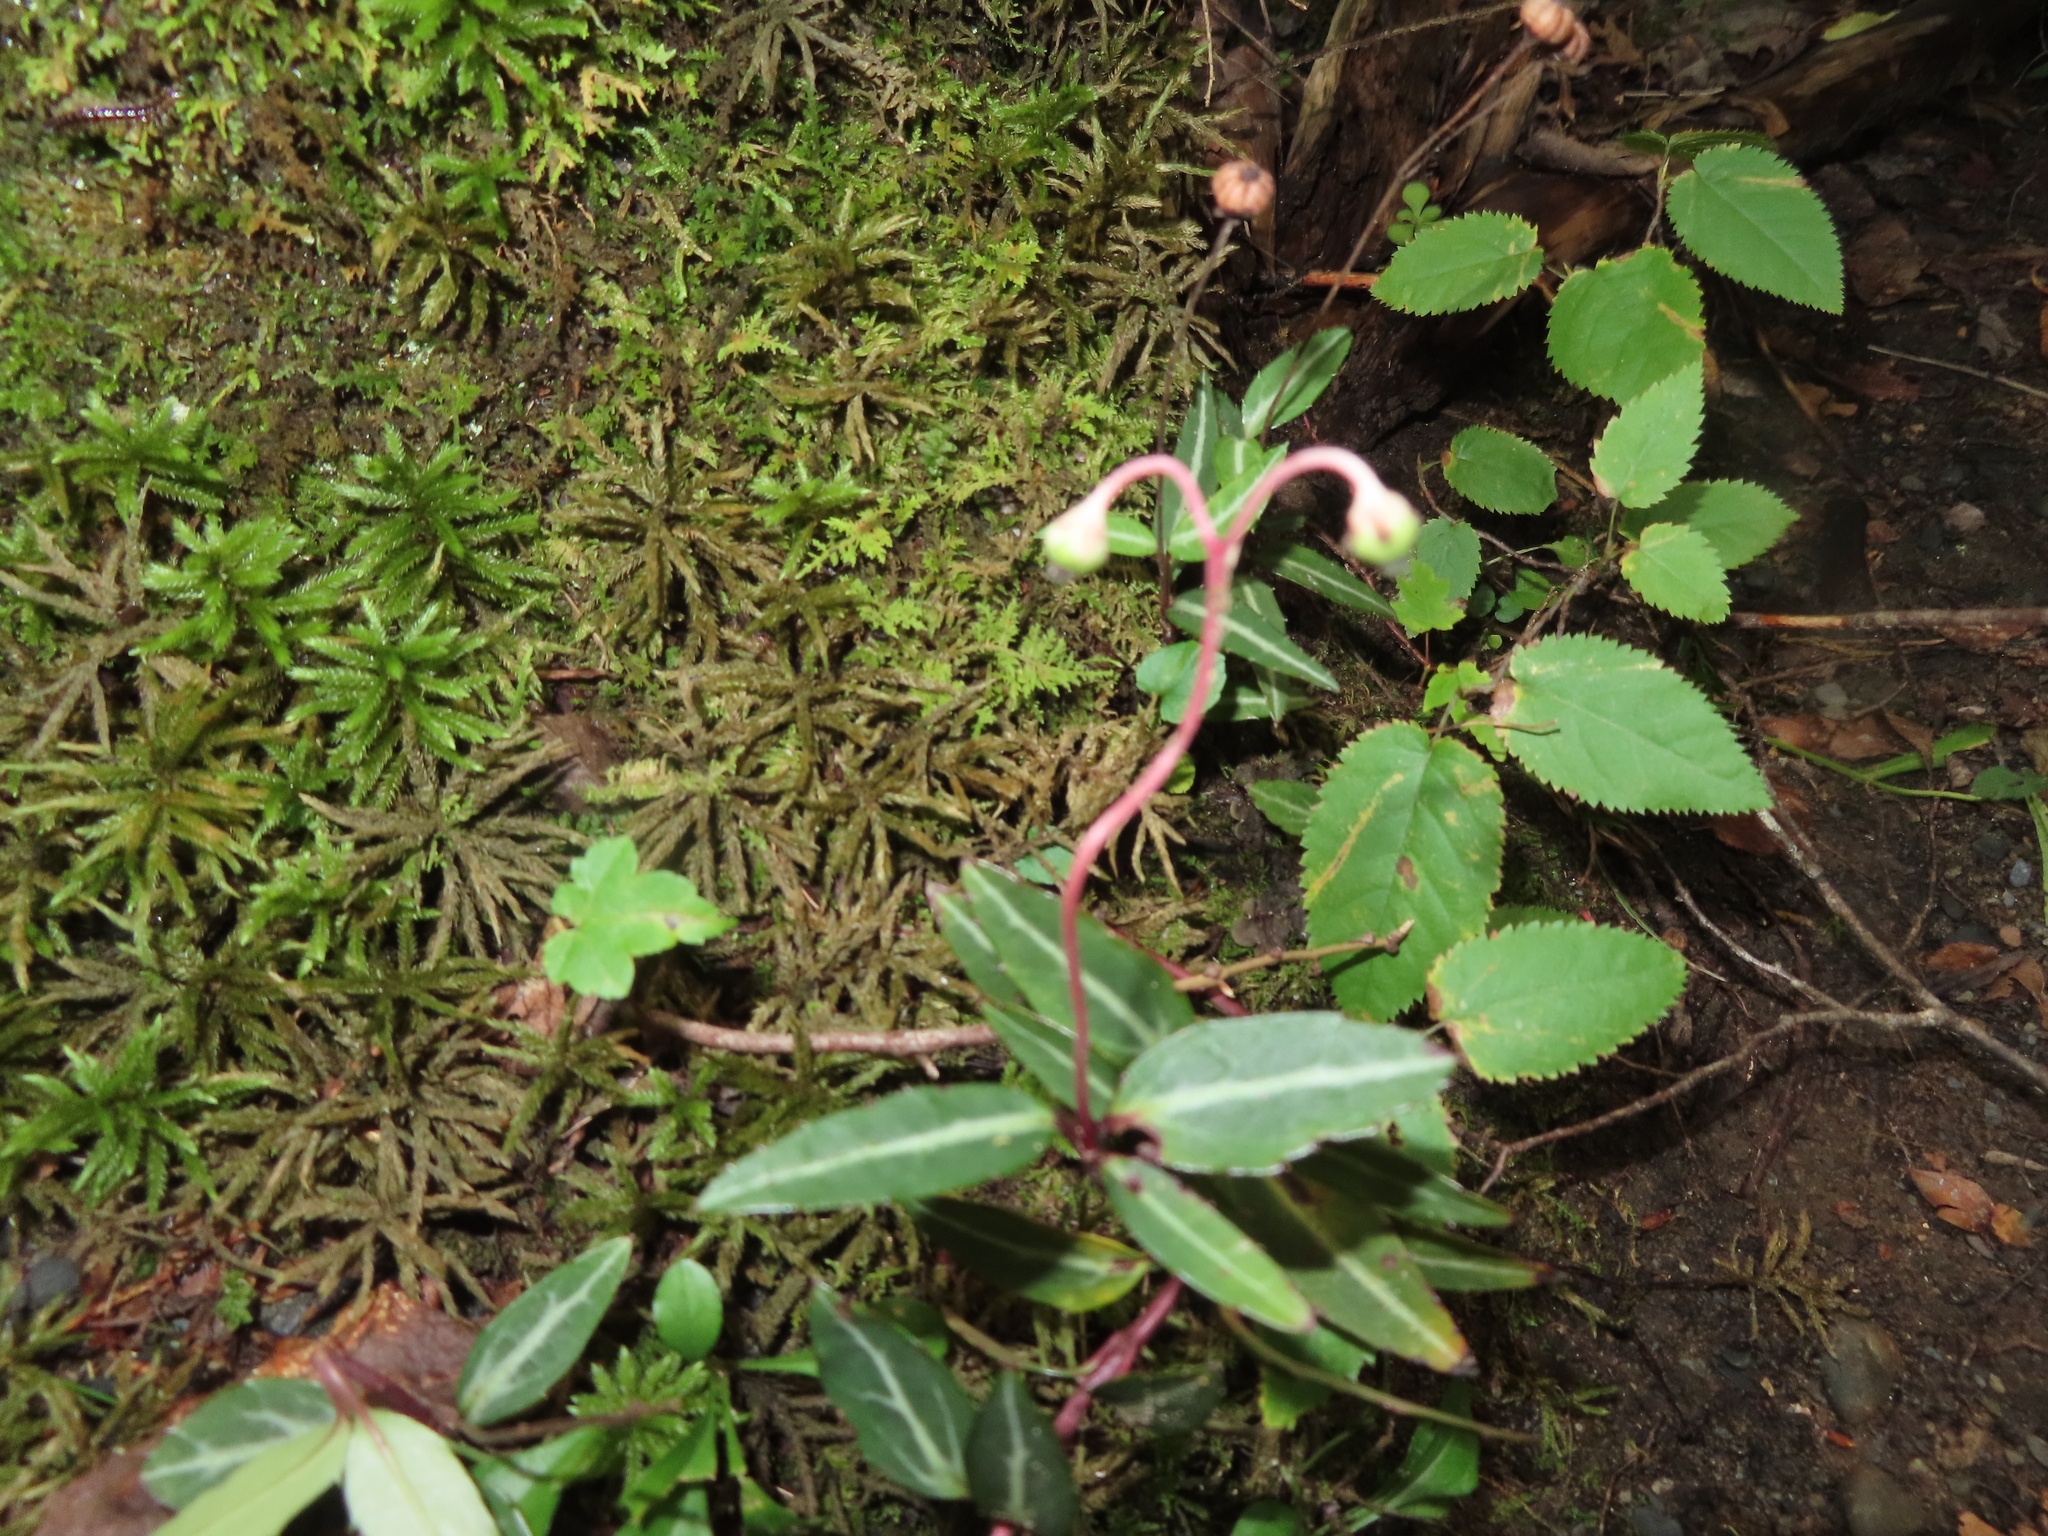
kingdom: Plantae
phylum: Tracheophyta
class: Magnoliopsida
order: Ericales
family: Ericaceae
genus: Chimaphila
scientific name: Chimaphila maculata
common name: Spotted pipsissewa
